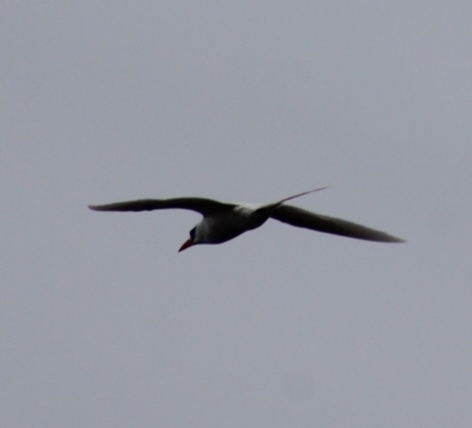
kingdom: Animalia
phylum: Chordata
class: Aves
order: Phaethontiformes
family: Phaethontidae
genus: Phaethon
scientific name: Phaethon rubricauda
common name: Red-tailed tropicbird
